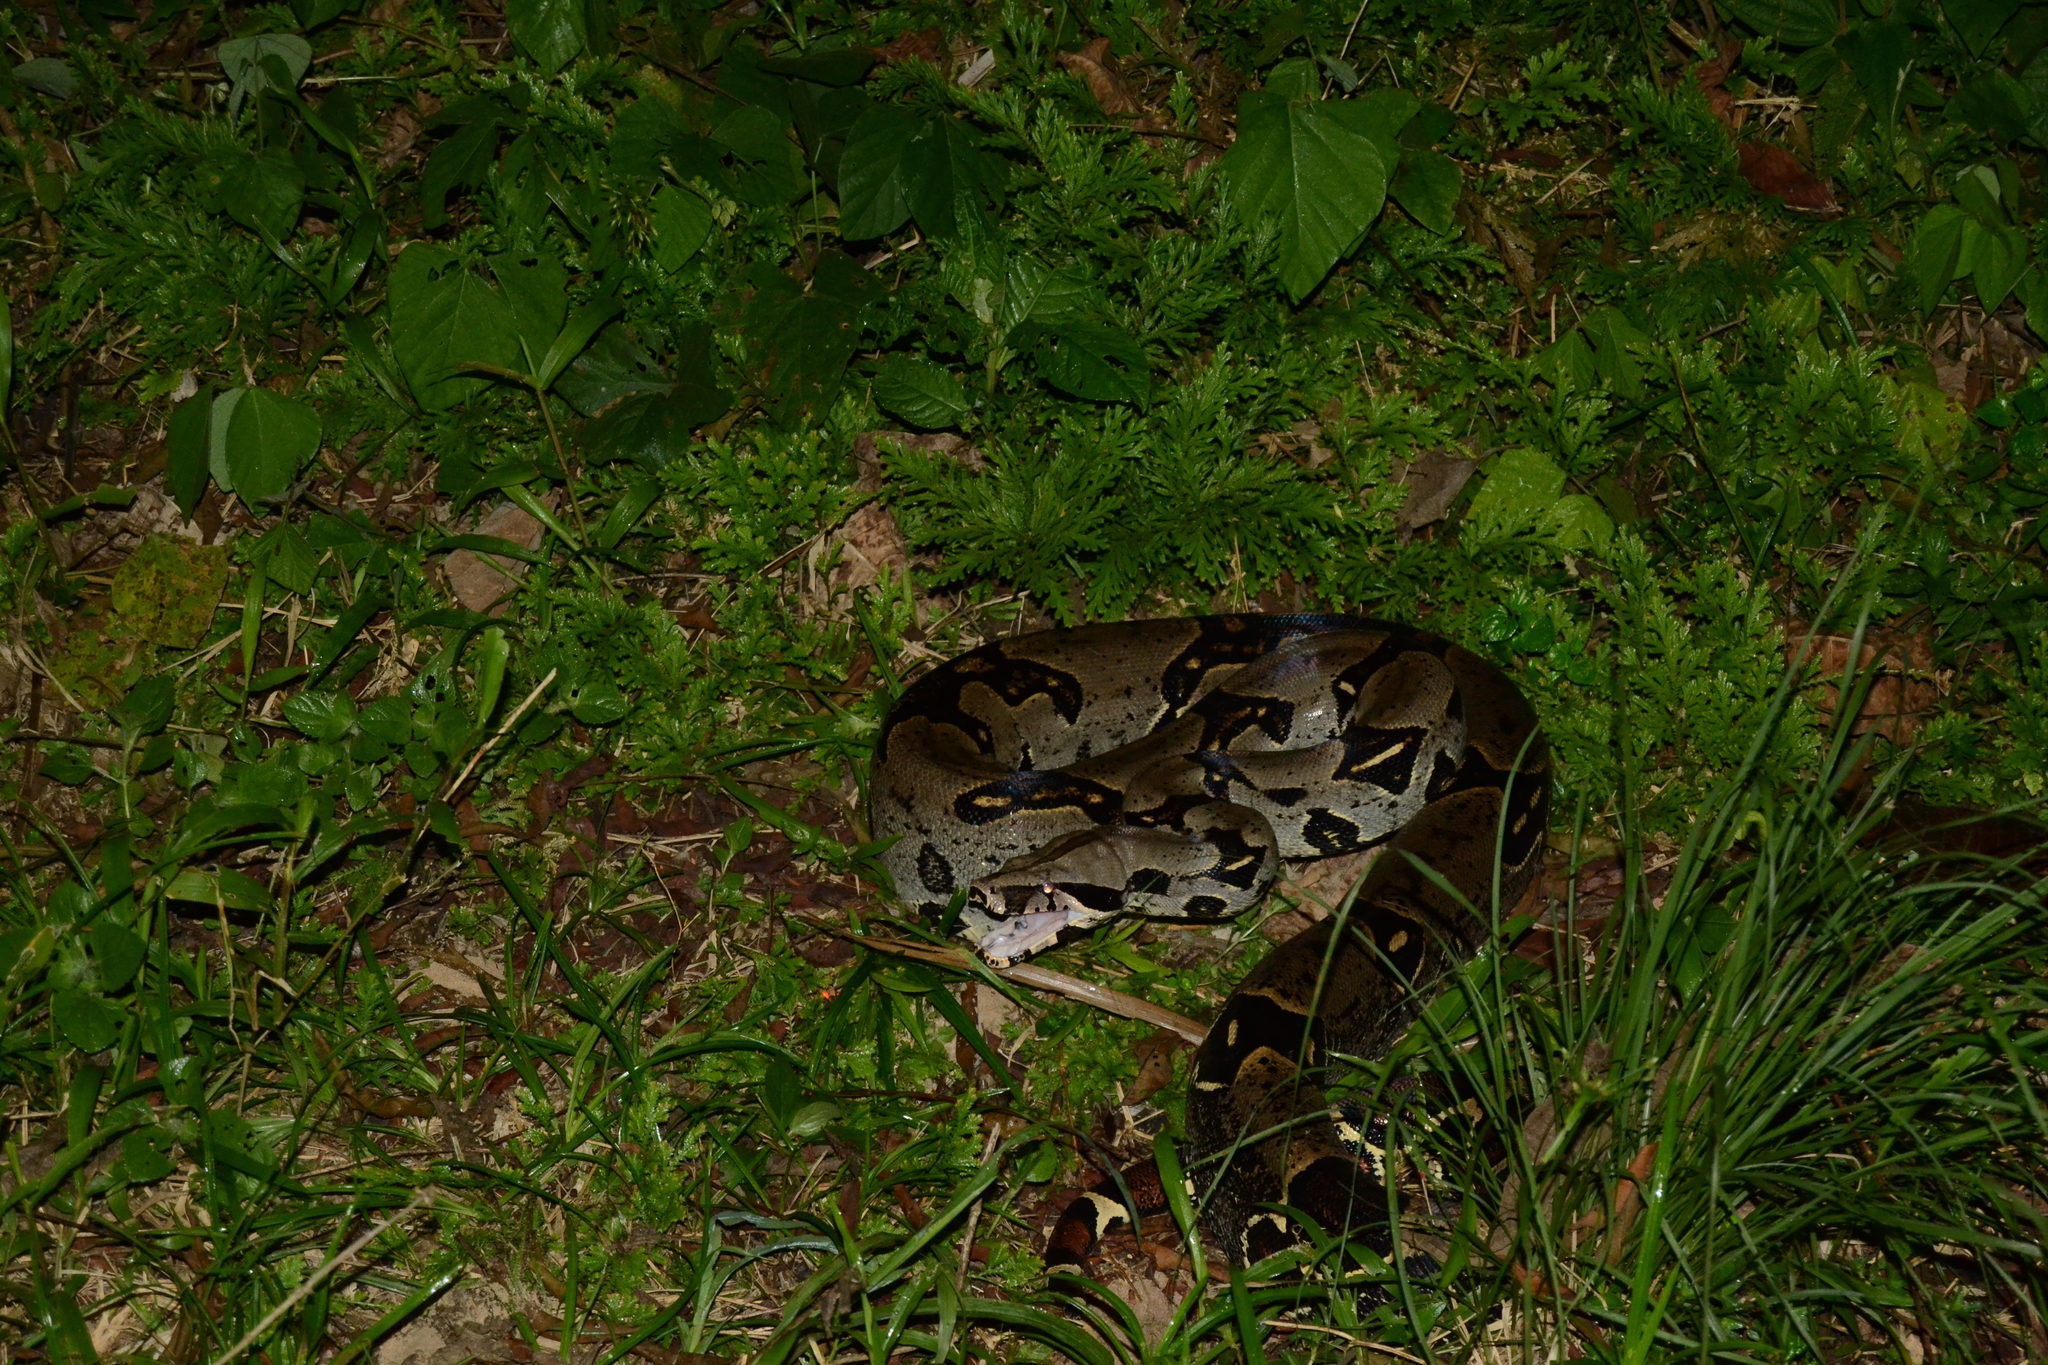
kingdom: Animalia
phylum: Chordata
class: Squamata
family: Boidae
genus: Boa
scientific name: Boa constrictor
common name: Boa constrictor
